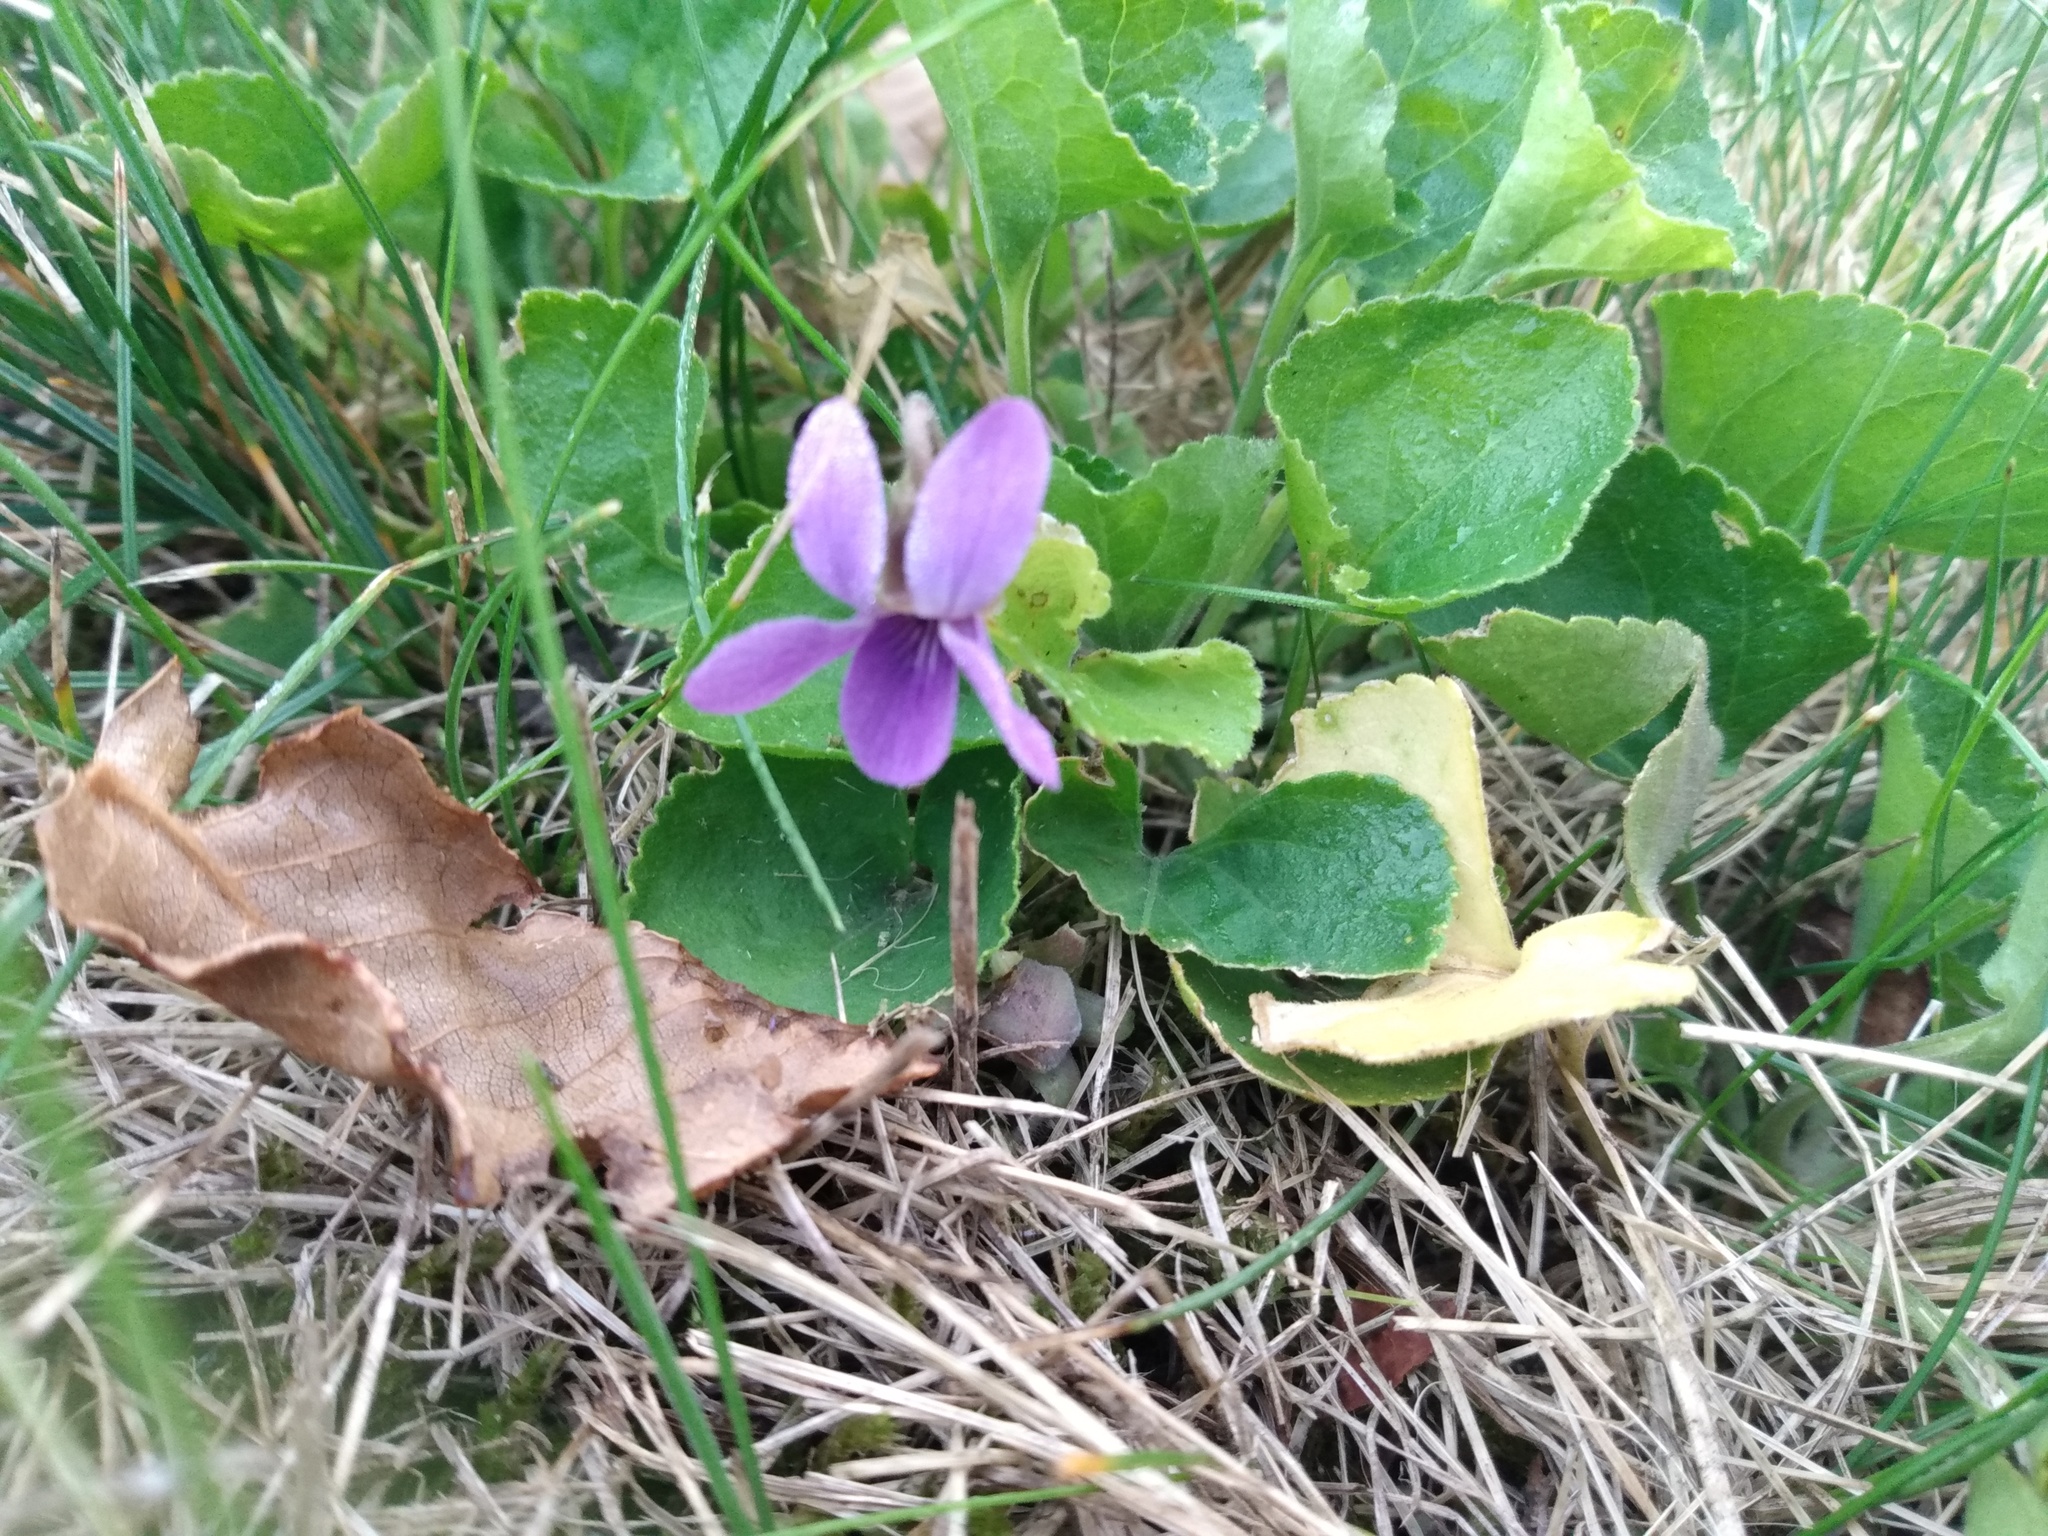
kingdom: Plantae
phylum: Tracheophyta
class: Magnoliopsida
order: Malpighiales
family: Violaceae
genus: Viola
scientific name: Viola odorata
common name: Sweet violet
